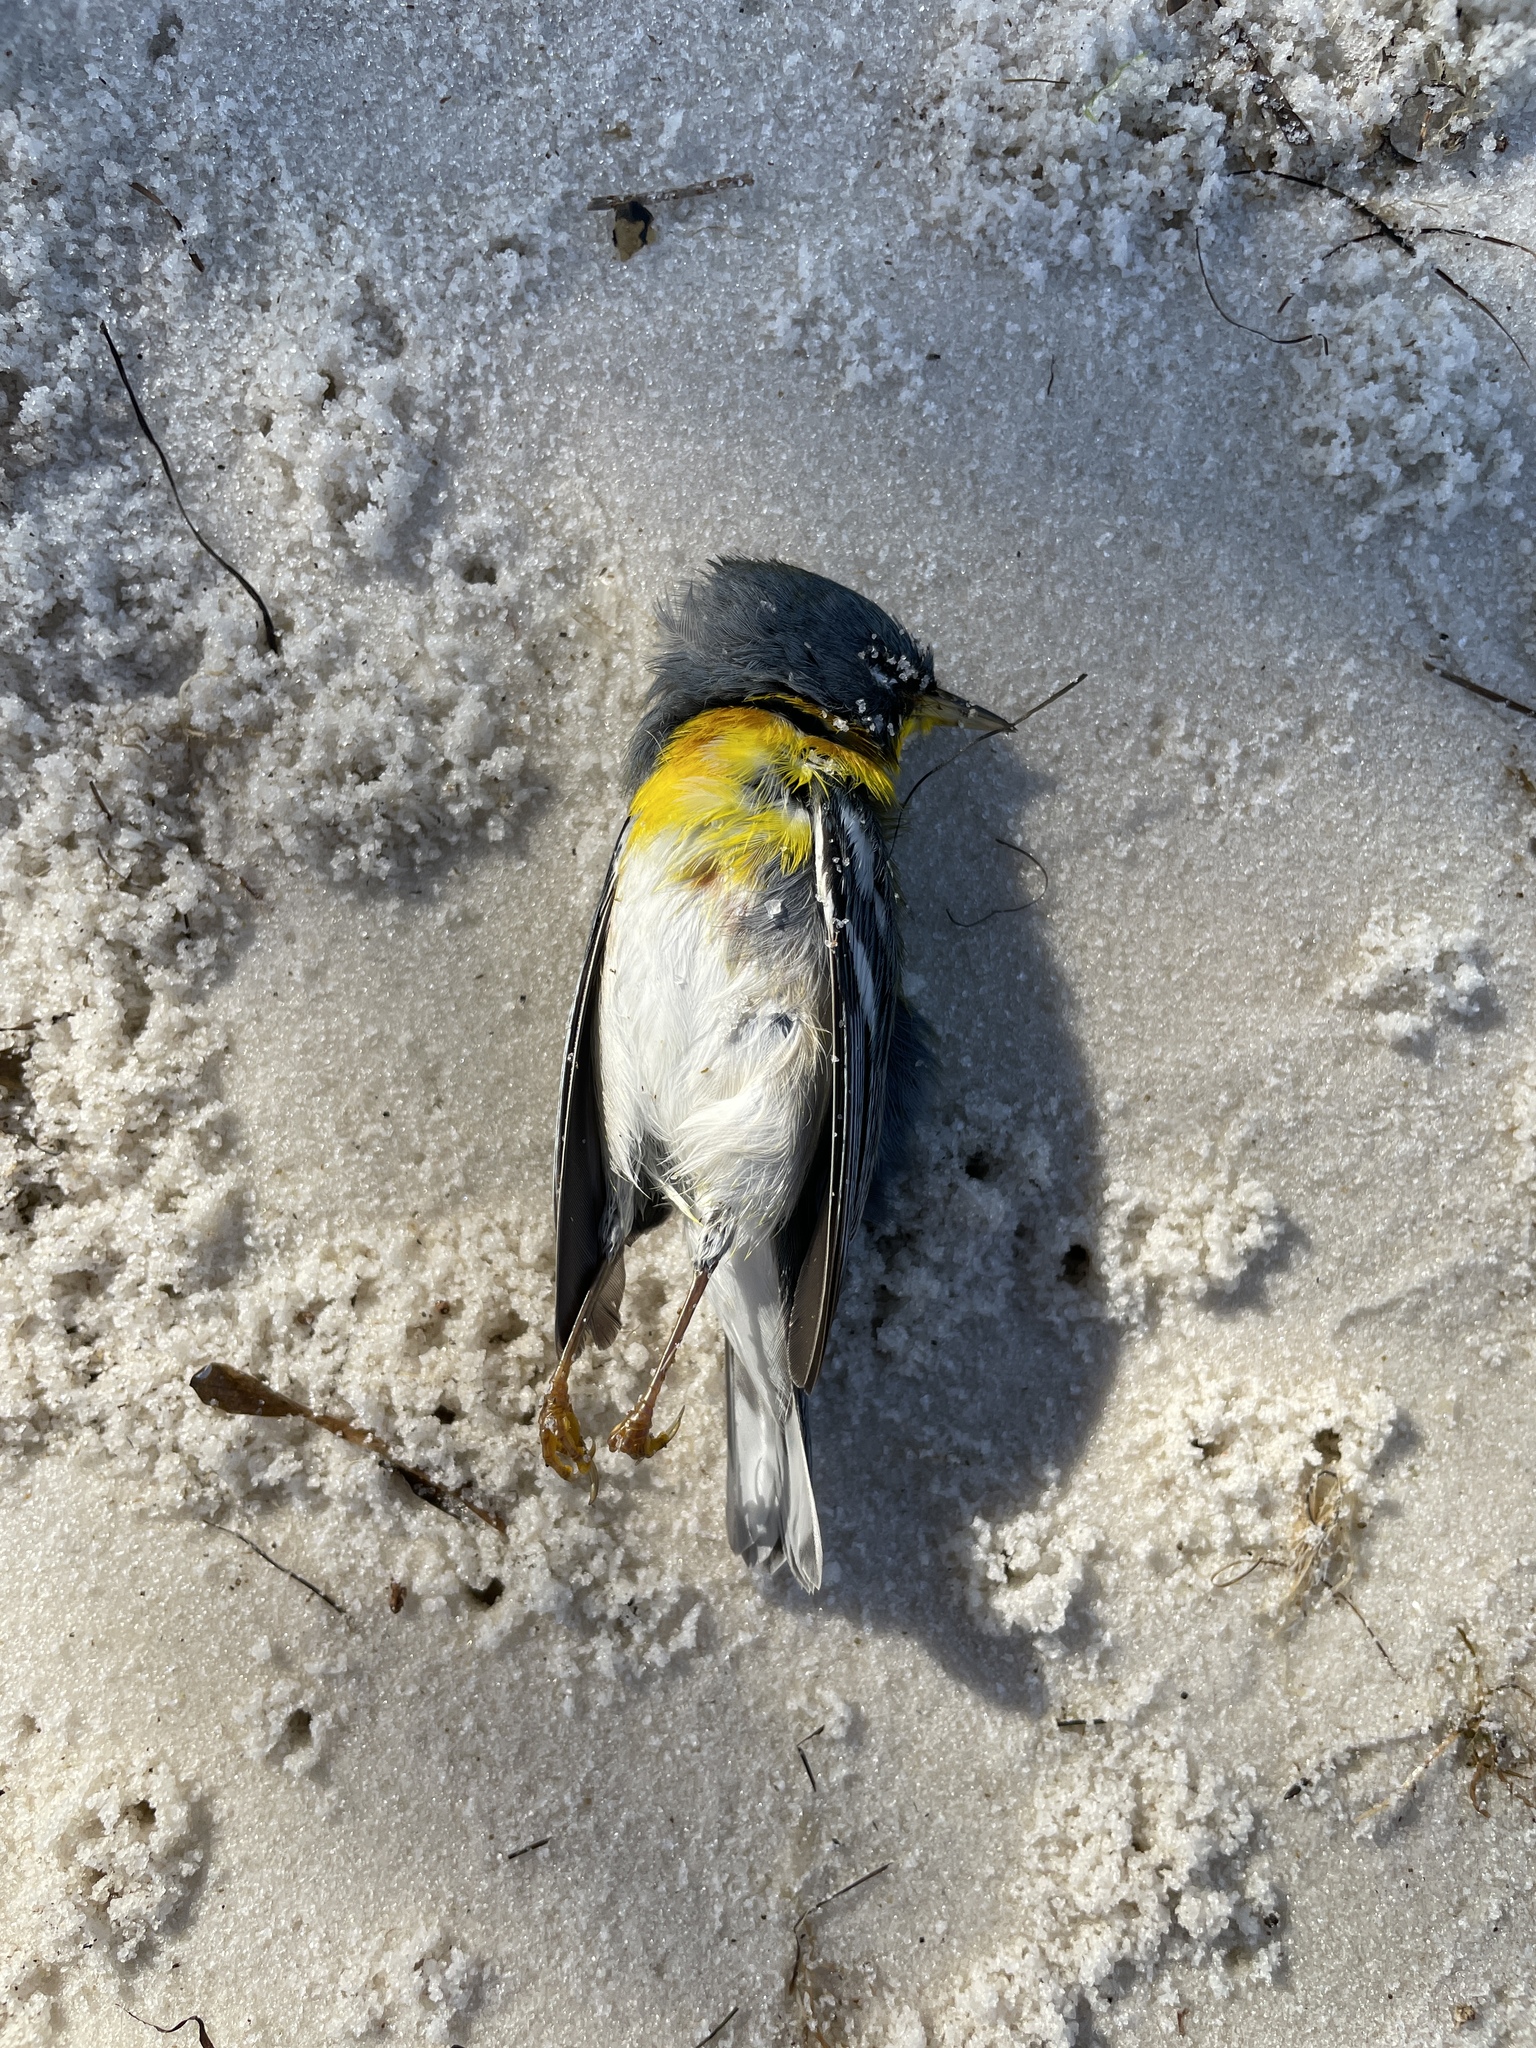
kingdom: Animalia
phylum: Chordata
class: Aves
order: Passeriformes
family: Parulidae
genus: Setophaga
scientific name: Setophaga americana
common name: Northern parula
